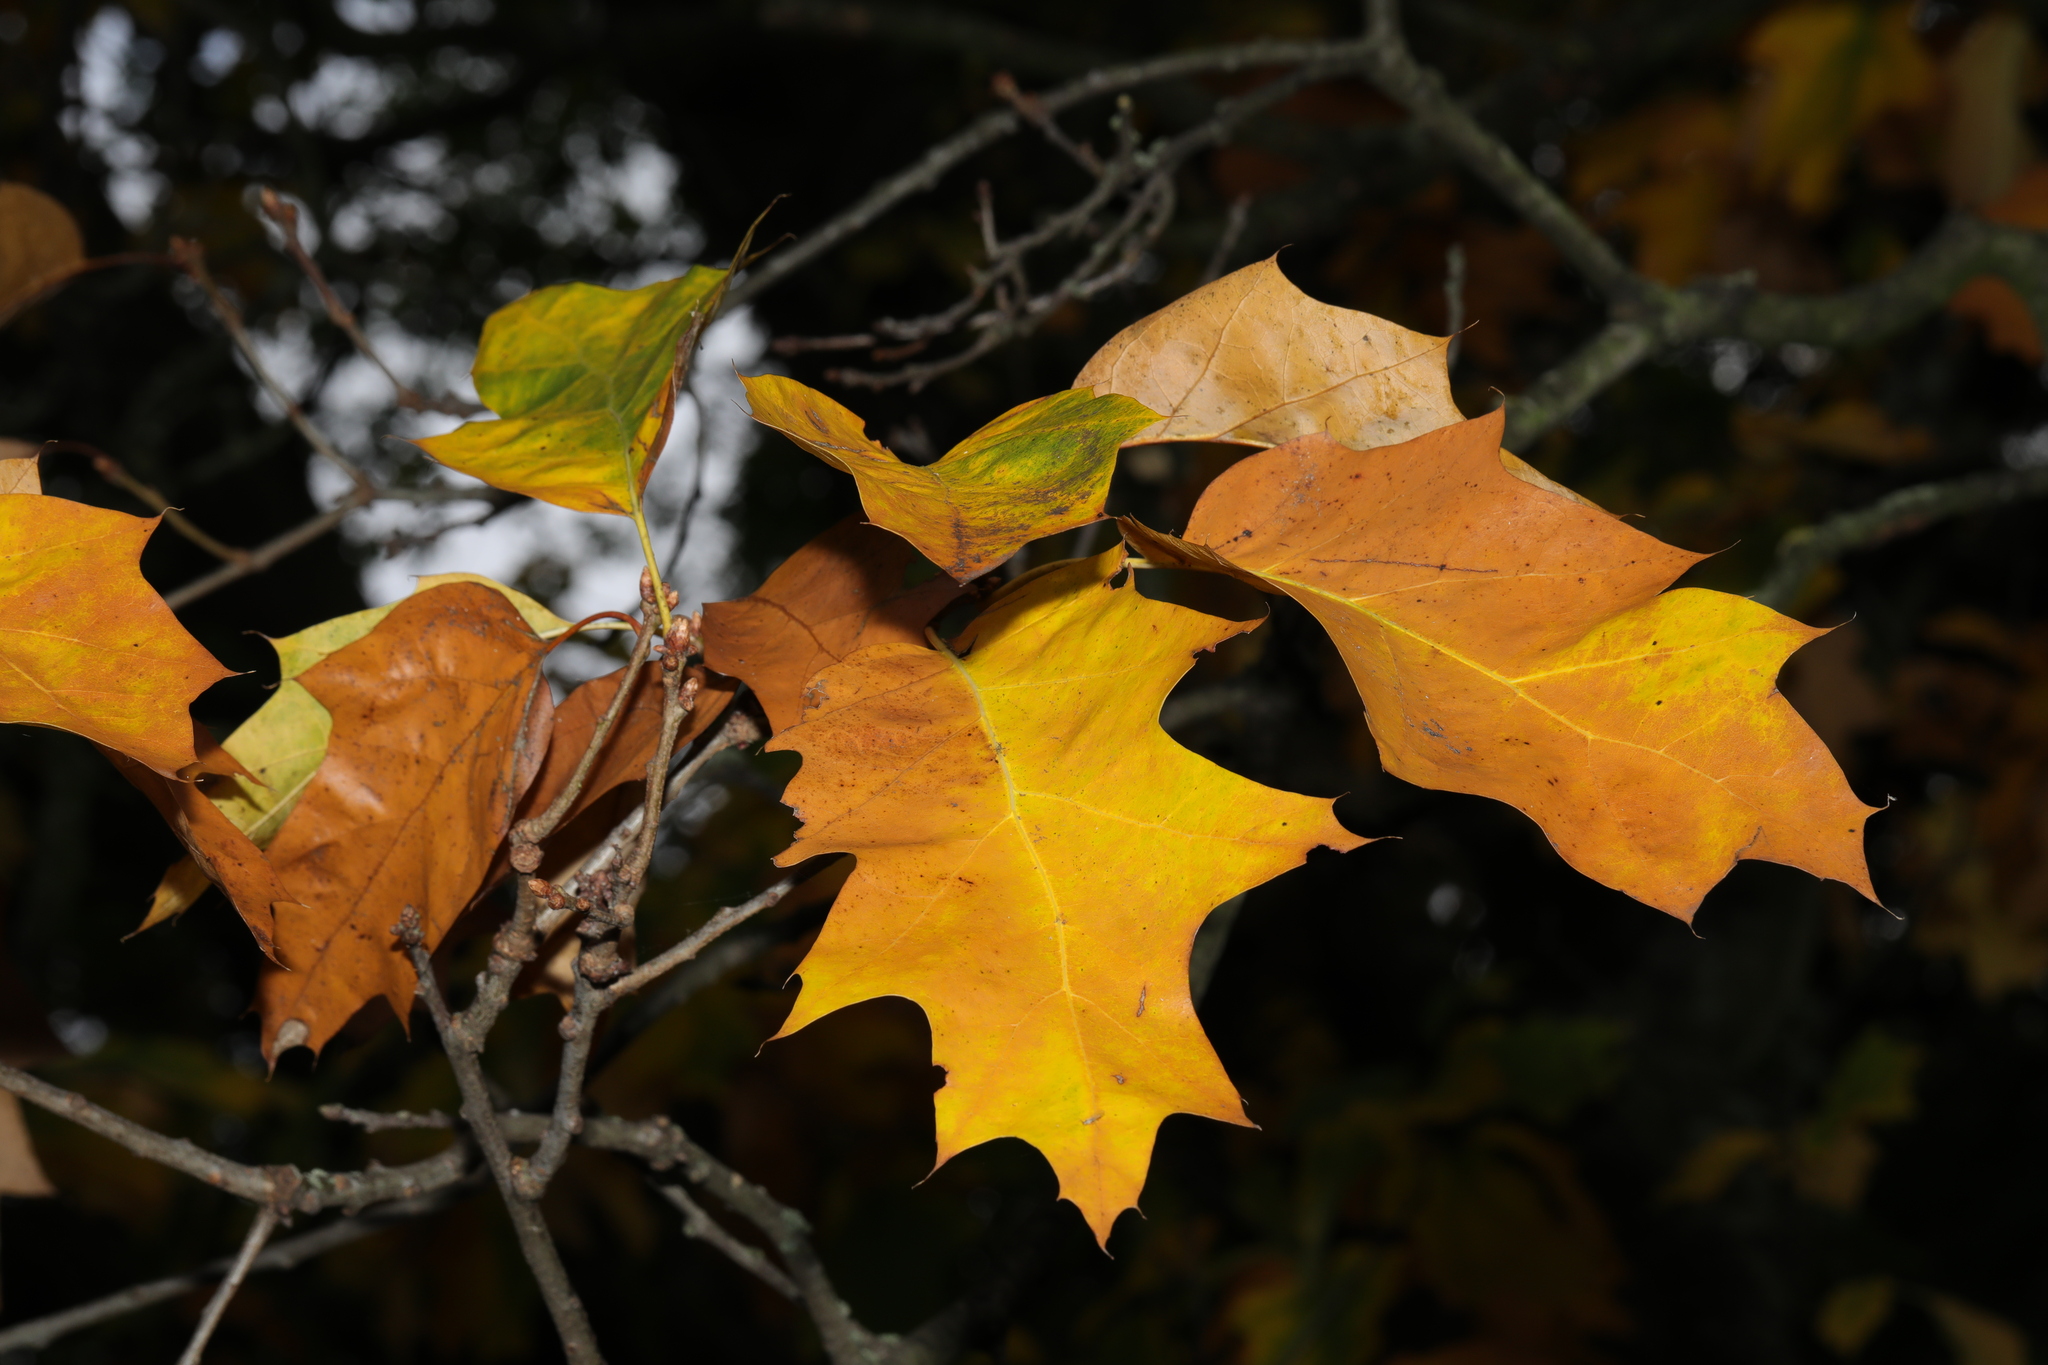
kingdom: Plantae
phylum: Tracheophyta
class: Magnoliopsida
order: Fagales
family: Fagaceae
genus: Quercus
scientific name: Quercus rubra
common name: Red oak
